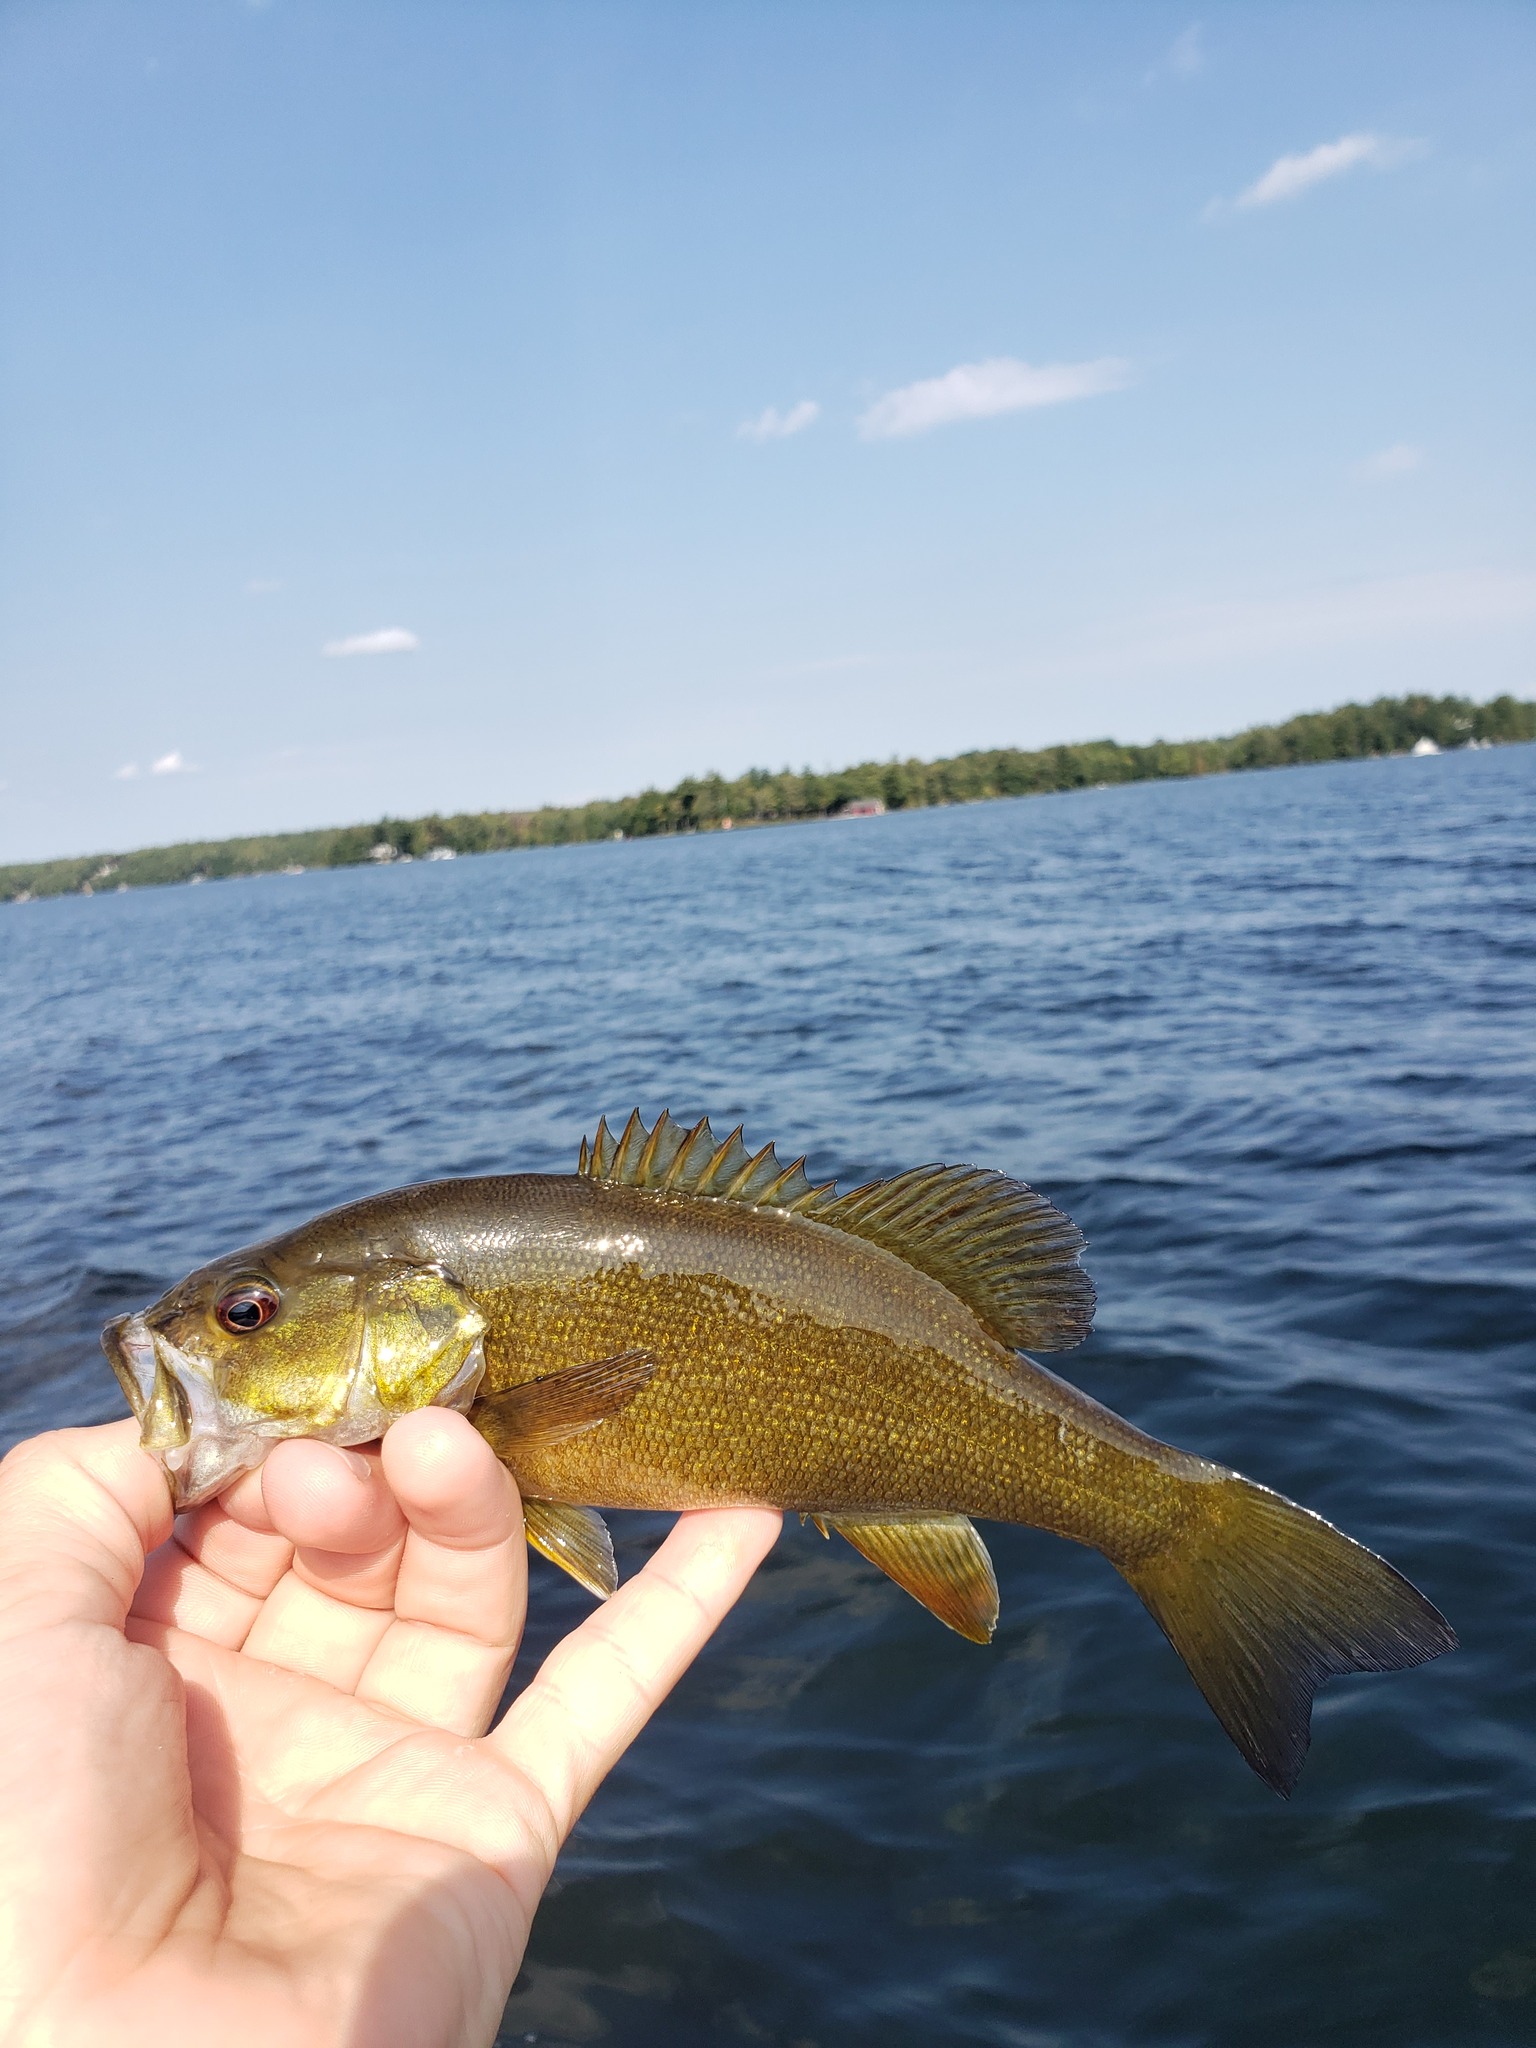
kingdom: Animalia
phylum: Chordata
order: Perciformes
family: Centrarchidae
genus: Micropterus
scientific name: Micropterus dolomieu
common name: Smallmouth bass
